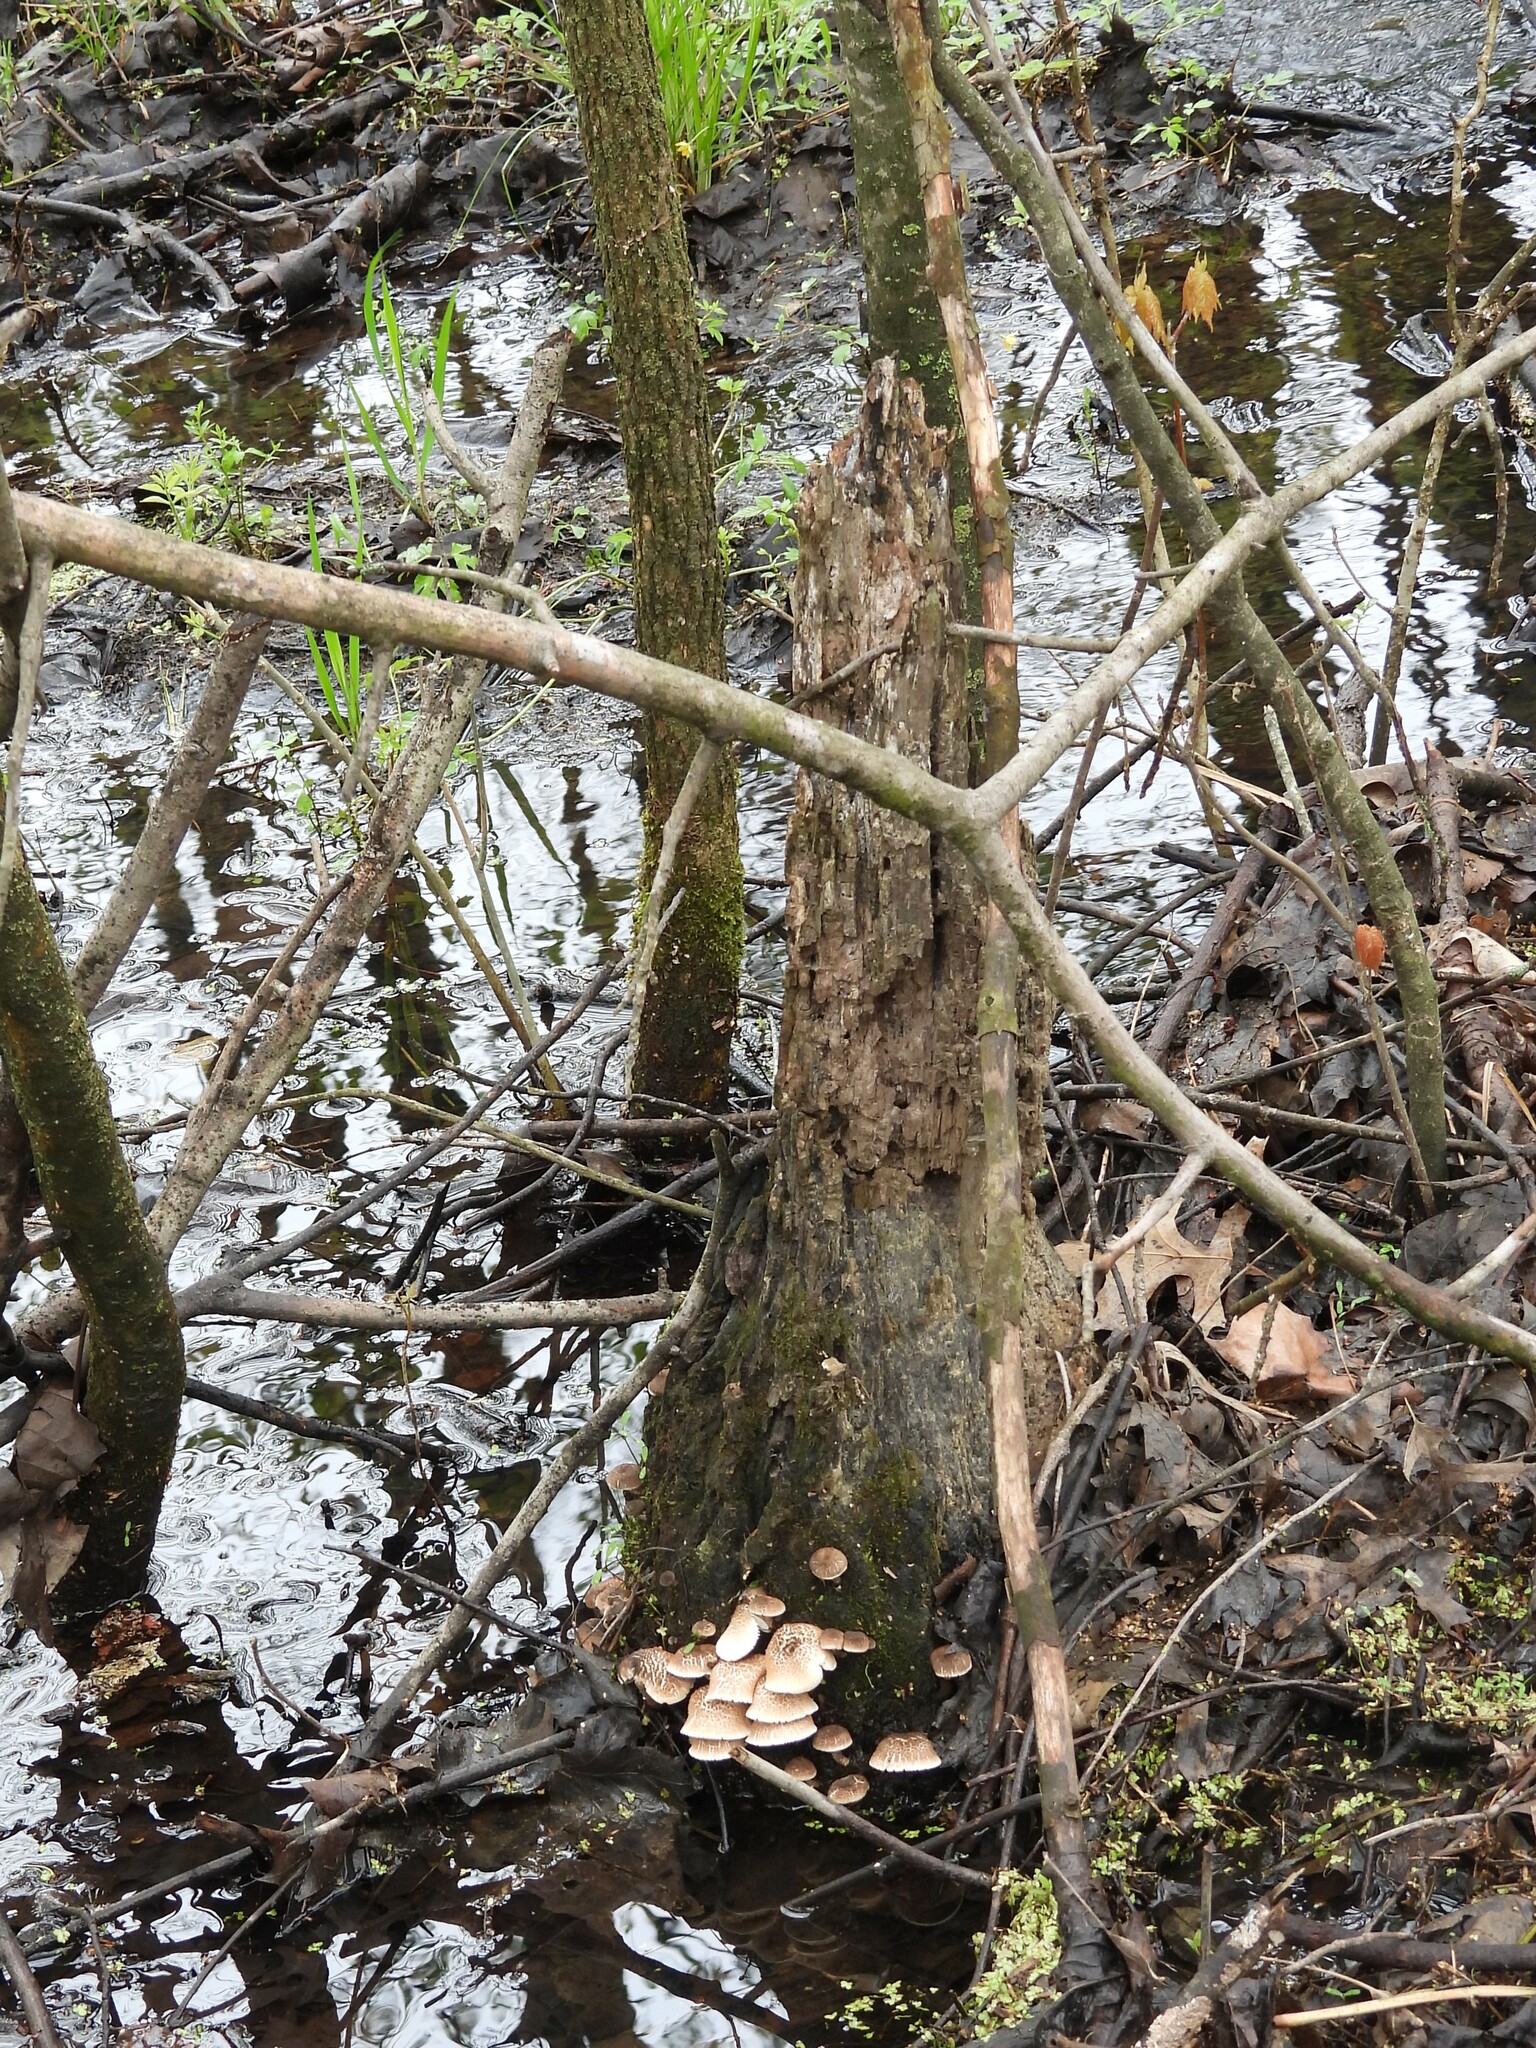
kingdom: Fungi
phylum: Basidiomycota
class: Agaricomycetes
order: Polyporales
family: Polyporaceae
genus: Lentinus
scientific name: Lentinus tigrinus
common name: Tiger sawgill
